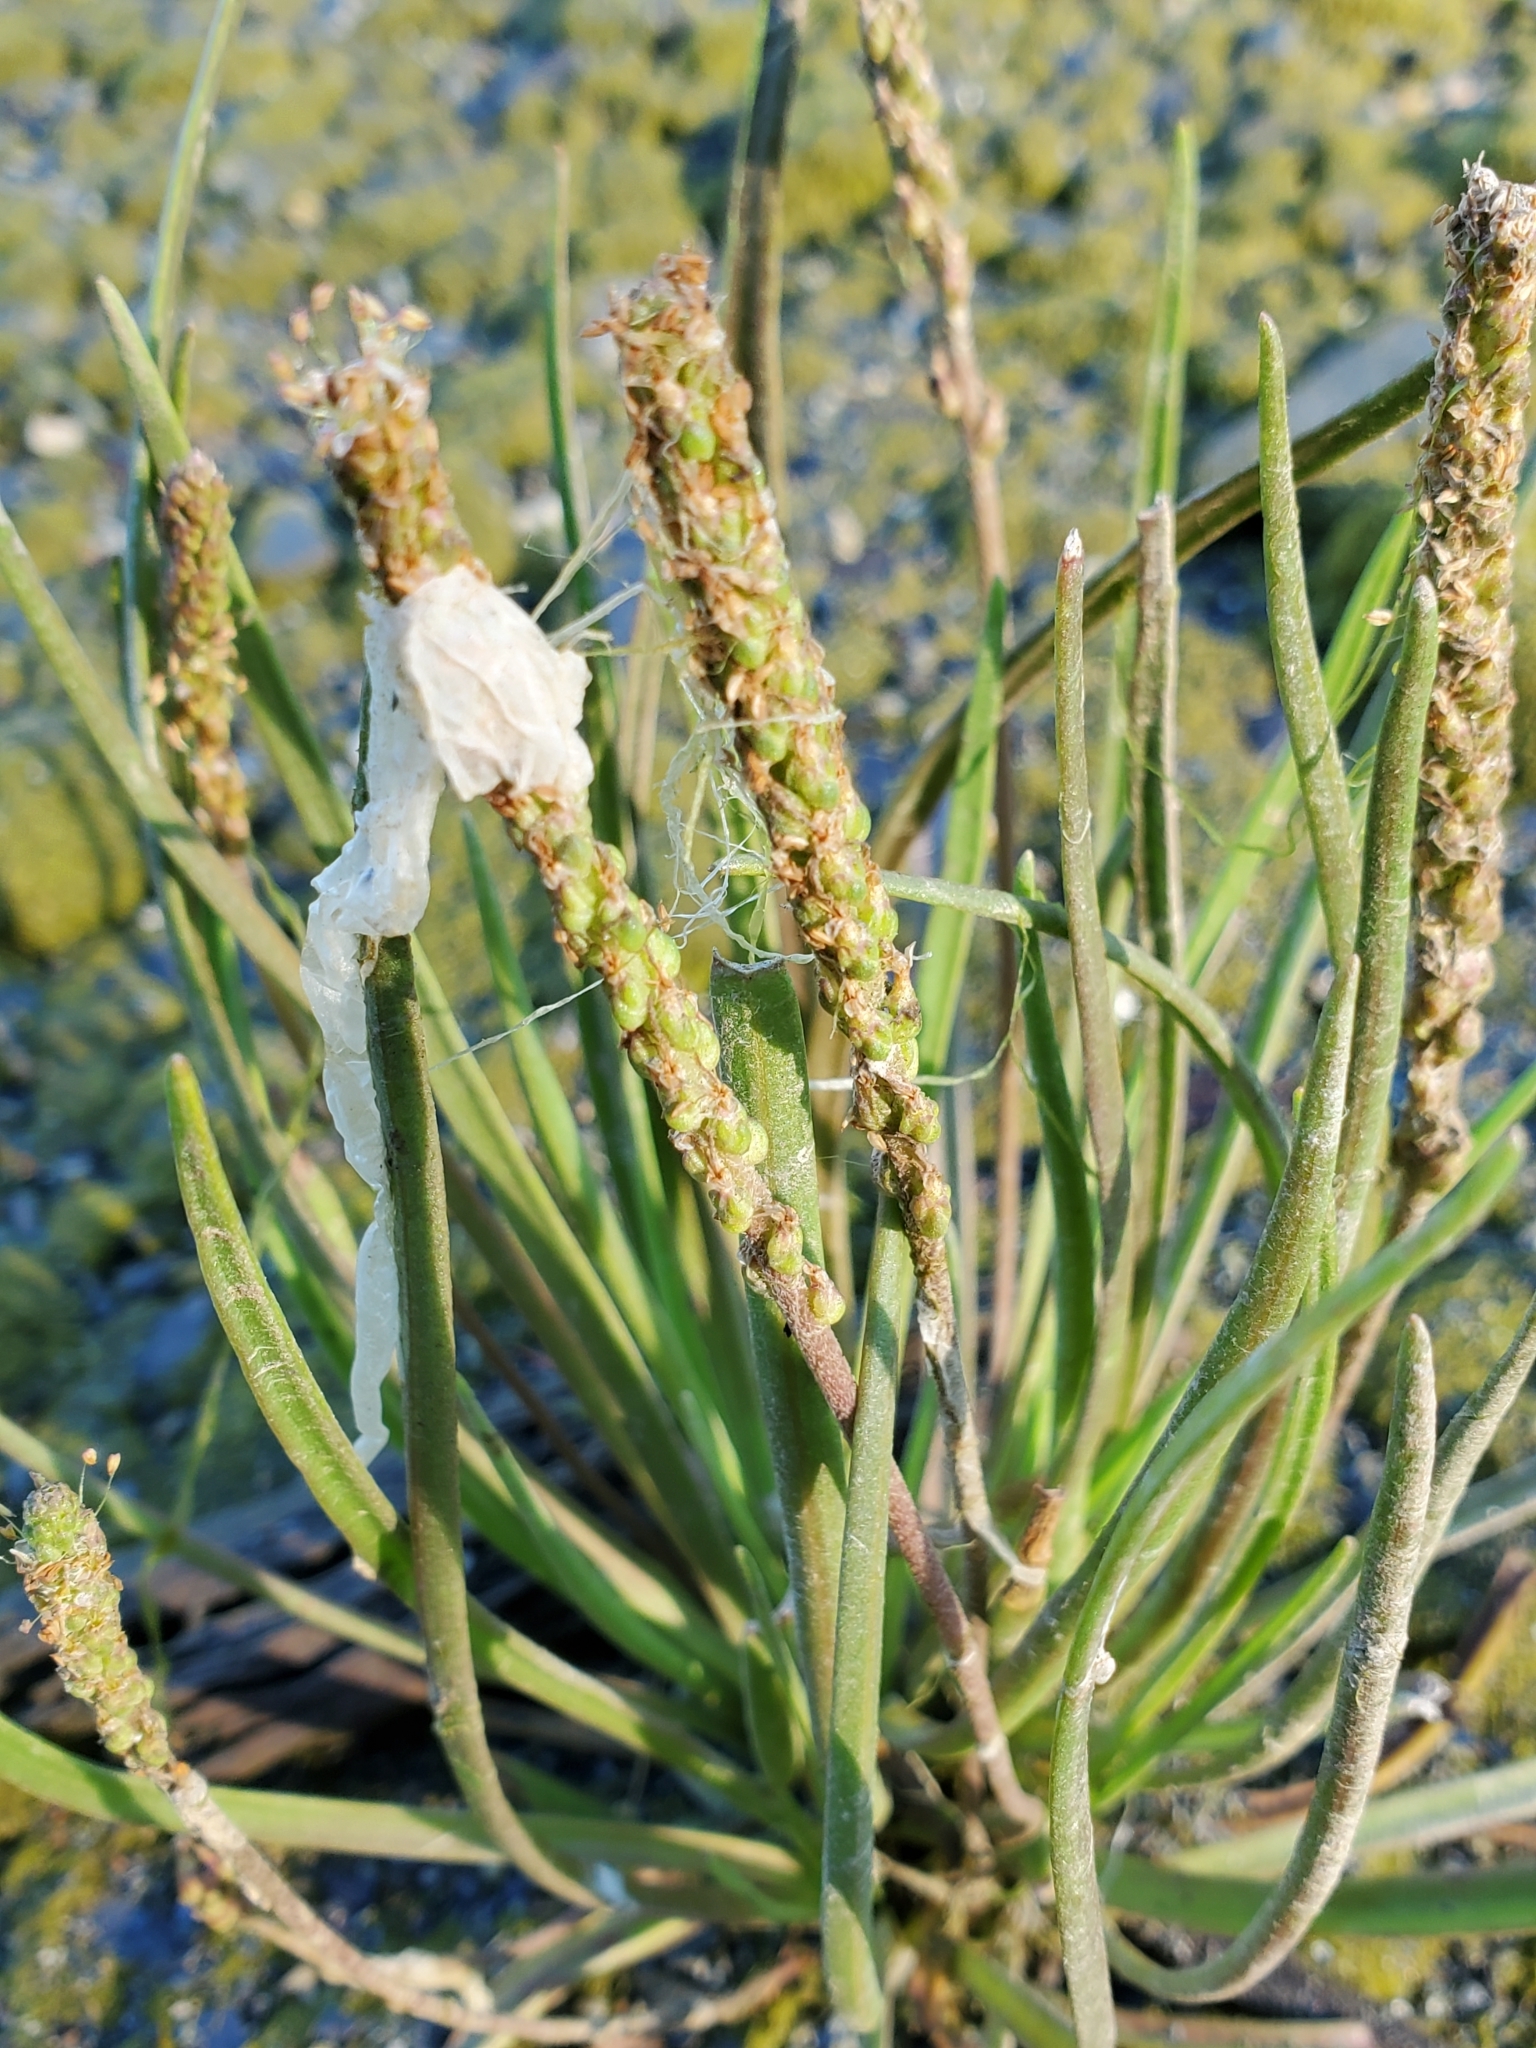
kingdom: Plantae
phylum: Tracheophyta
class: Magnoliopsida
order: Lamiales
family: Plantaginaceae
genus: Plantago
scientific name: Plantago maritima
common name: Sea plantain
